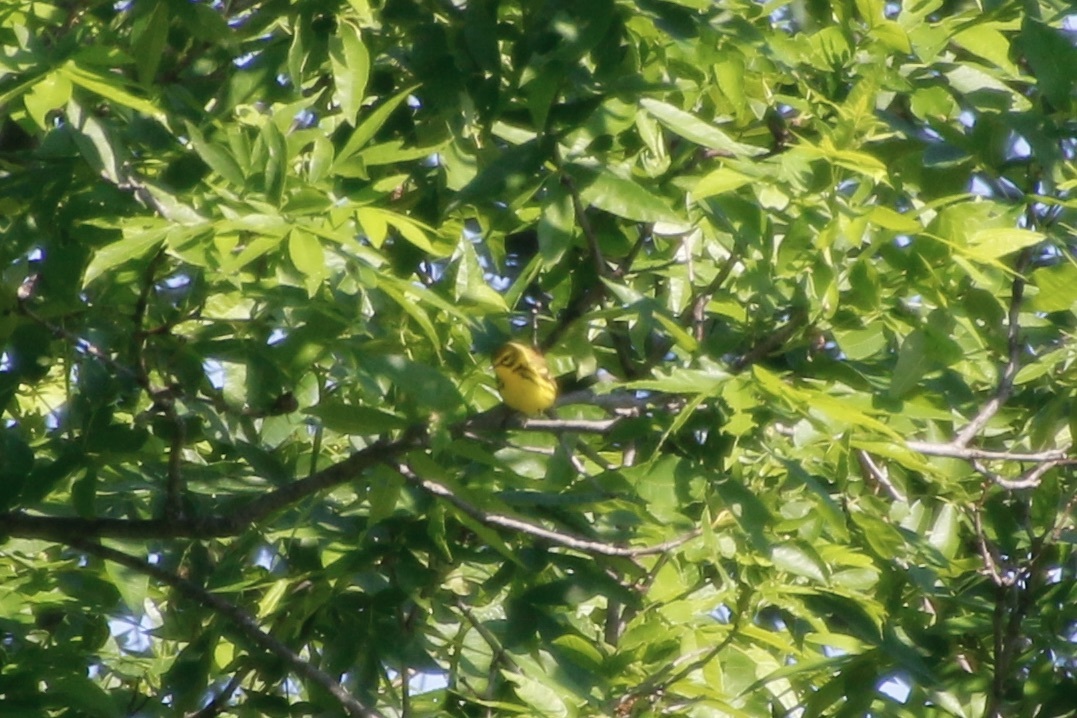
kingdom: Animalia
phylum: Chordata
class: Aves
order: Passeriformes
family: Parulidae
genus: Setophaga
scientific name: Setophaga discolor
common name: Prairie warbler
